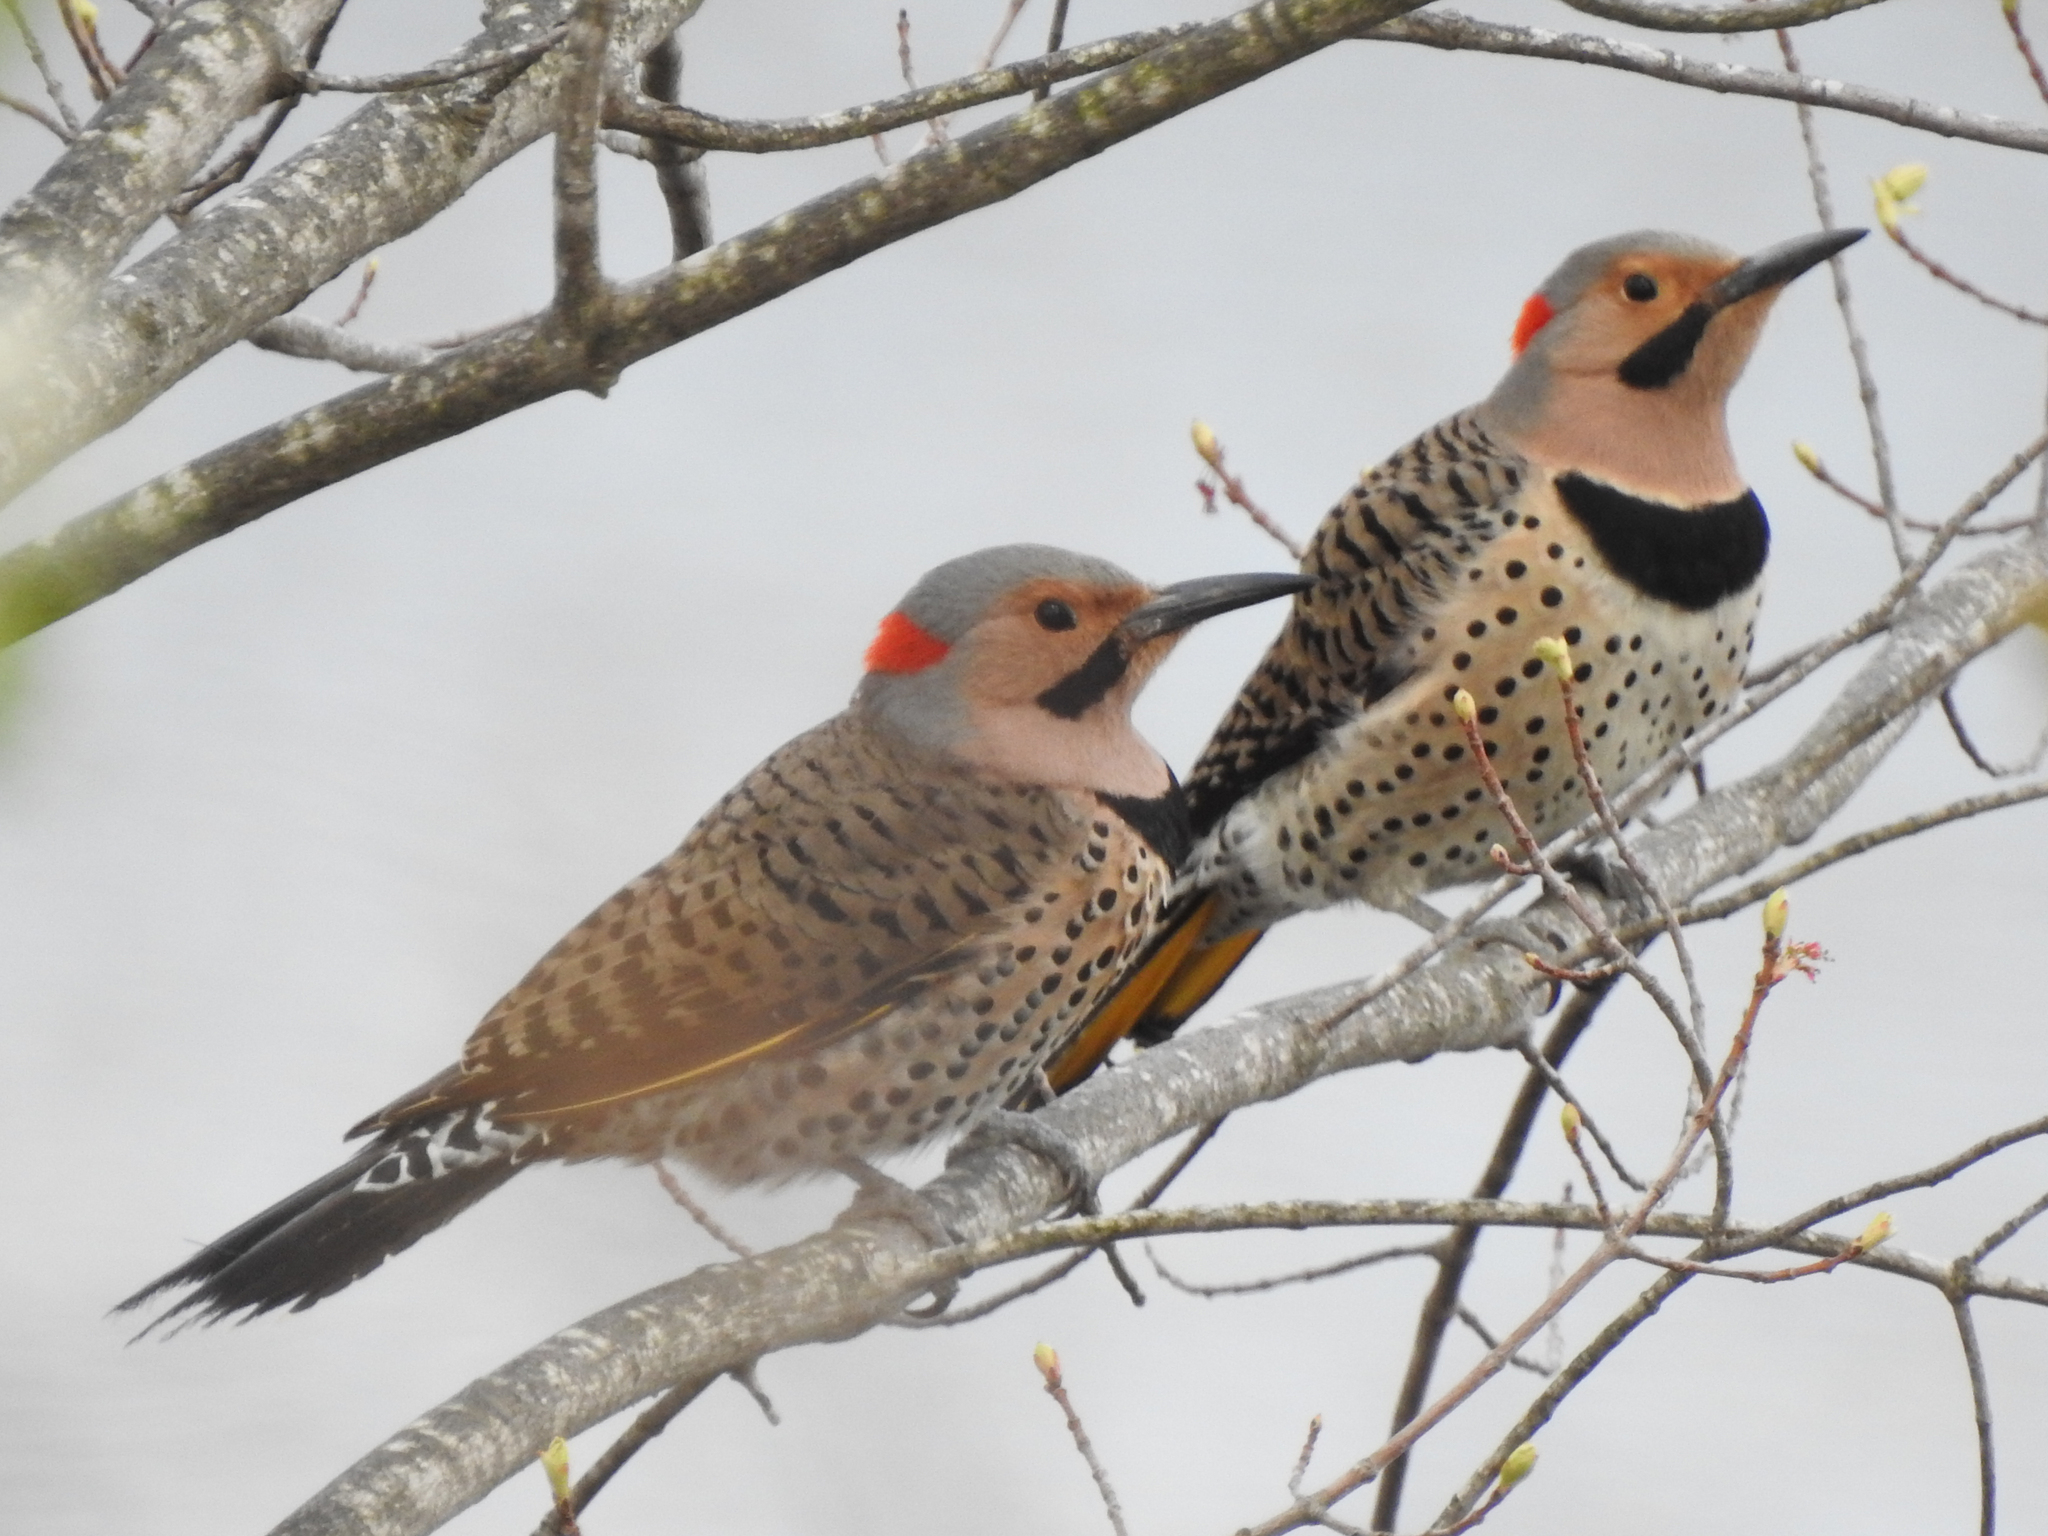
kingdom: Animalia
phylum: Chordata
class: Aves
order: Piciformes
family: Picidae
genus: Colaptes
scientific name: Colaptes auratus
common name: Northern flicker
